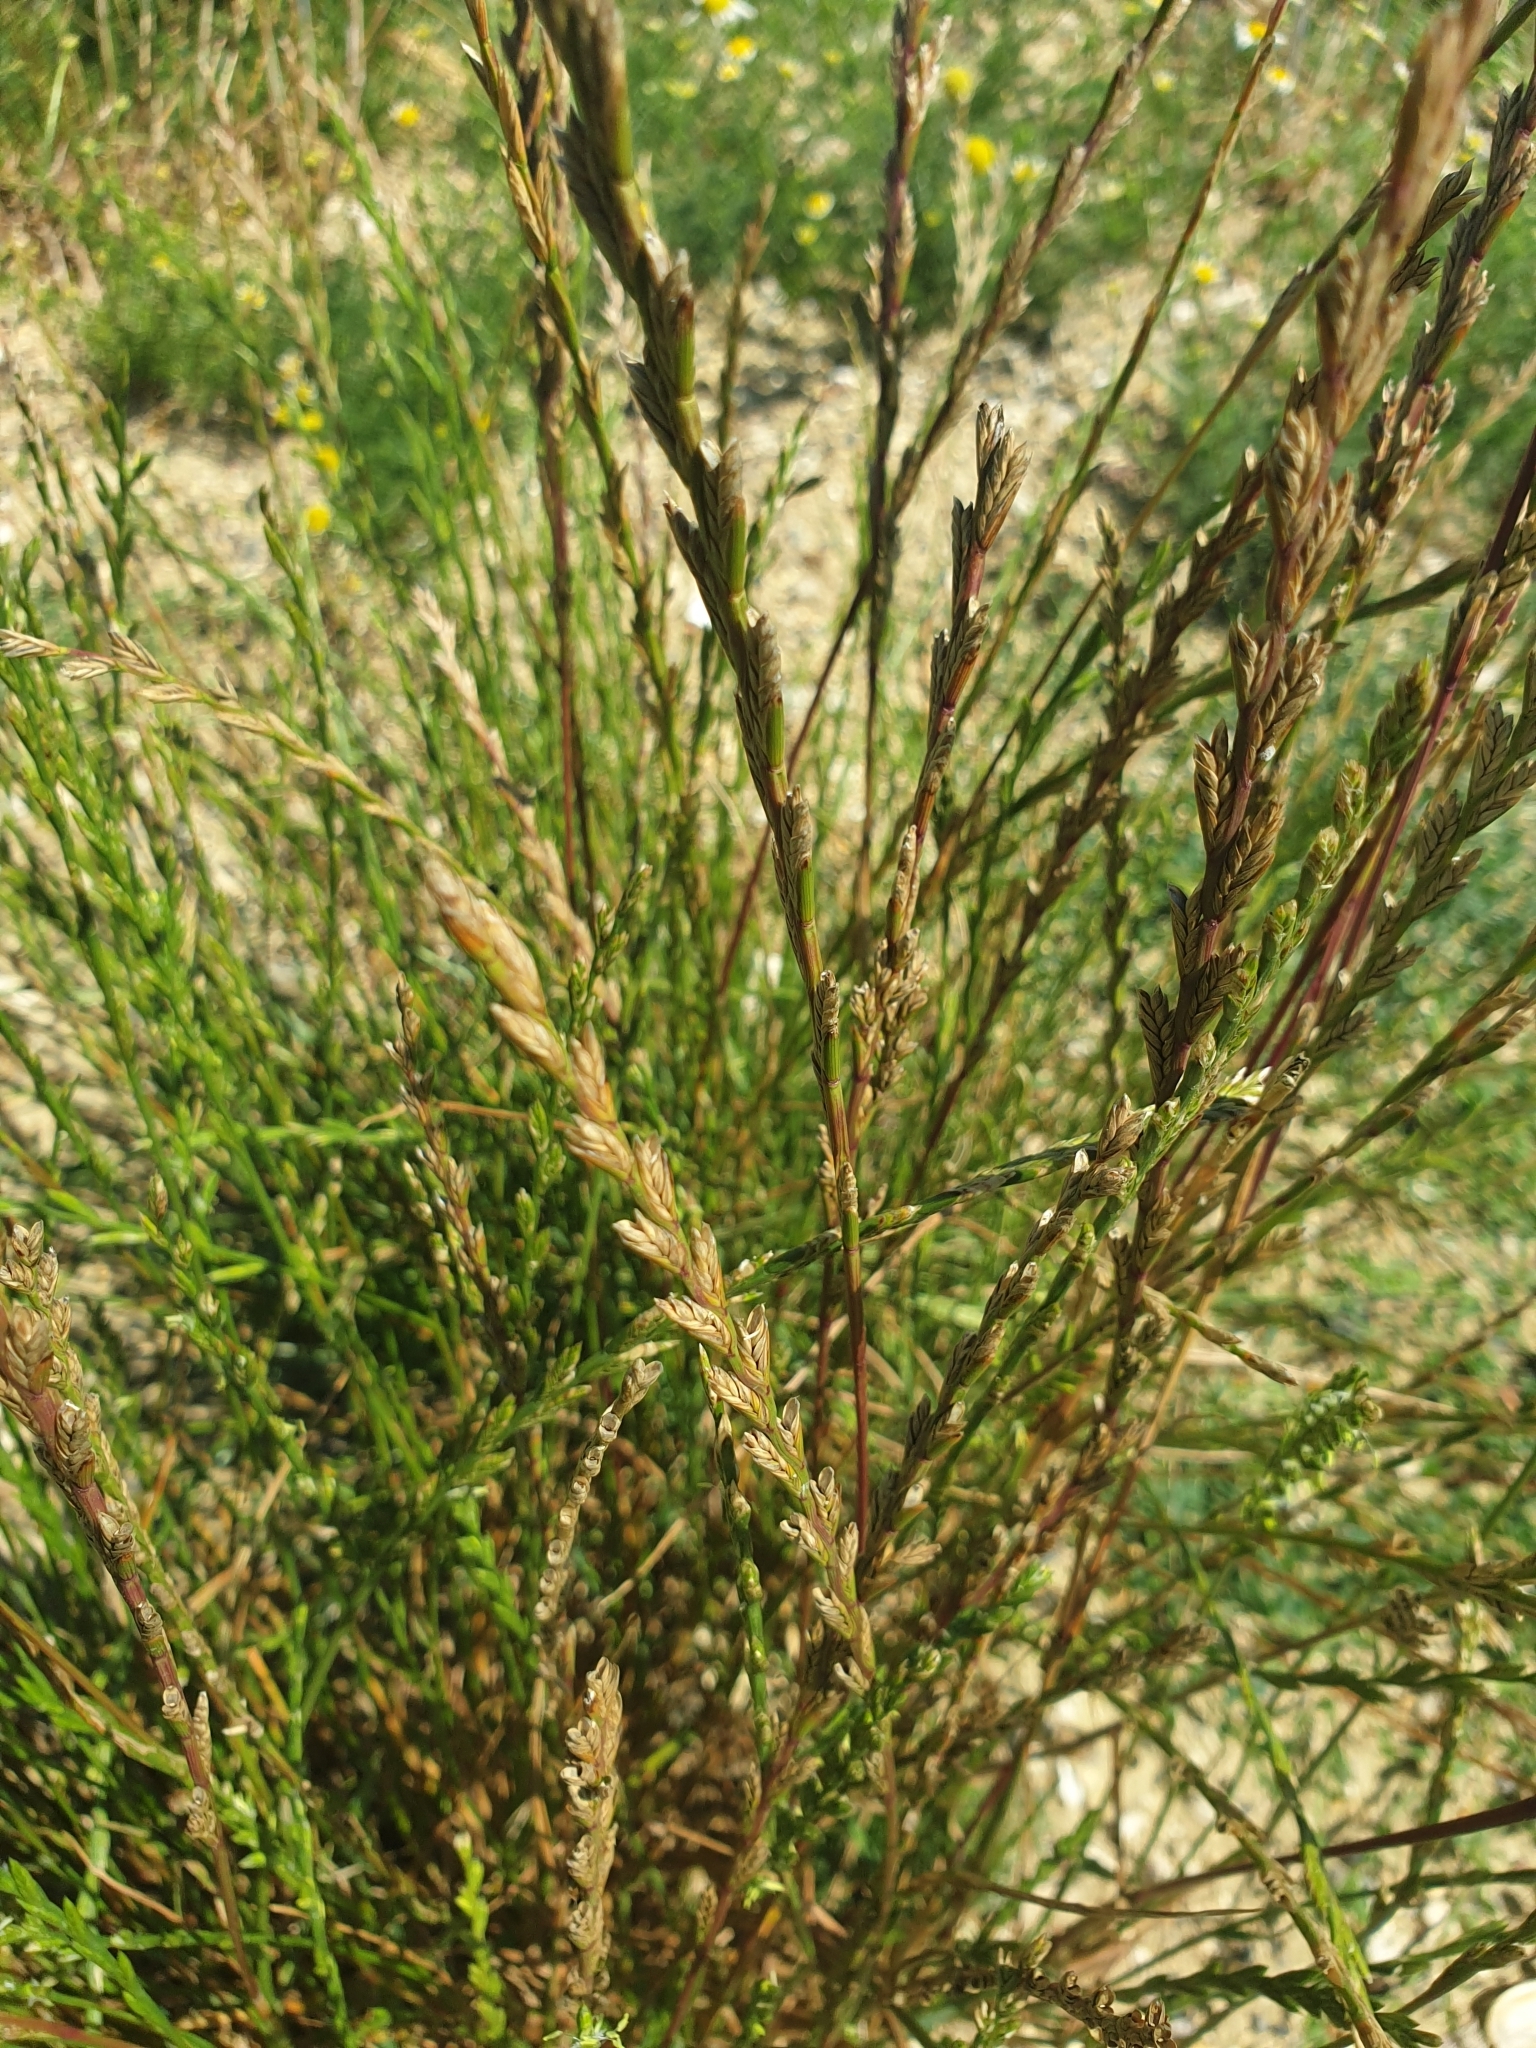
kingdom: Plantae
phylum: Tracheophyta
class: Liliopsida
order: Poales
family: Poaceae
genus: Lolium
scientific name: Lolium perenne
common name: Perennial ryegrass
